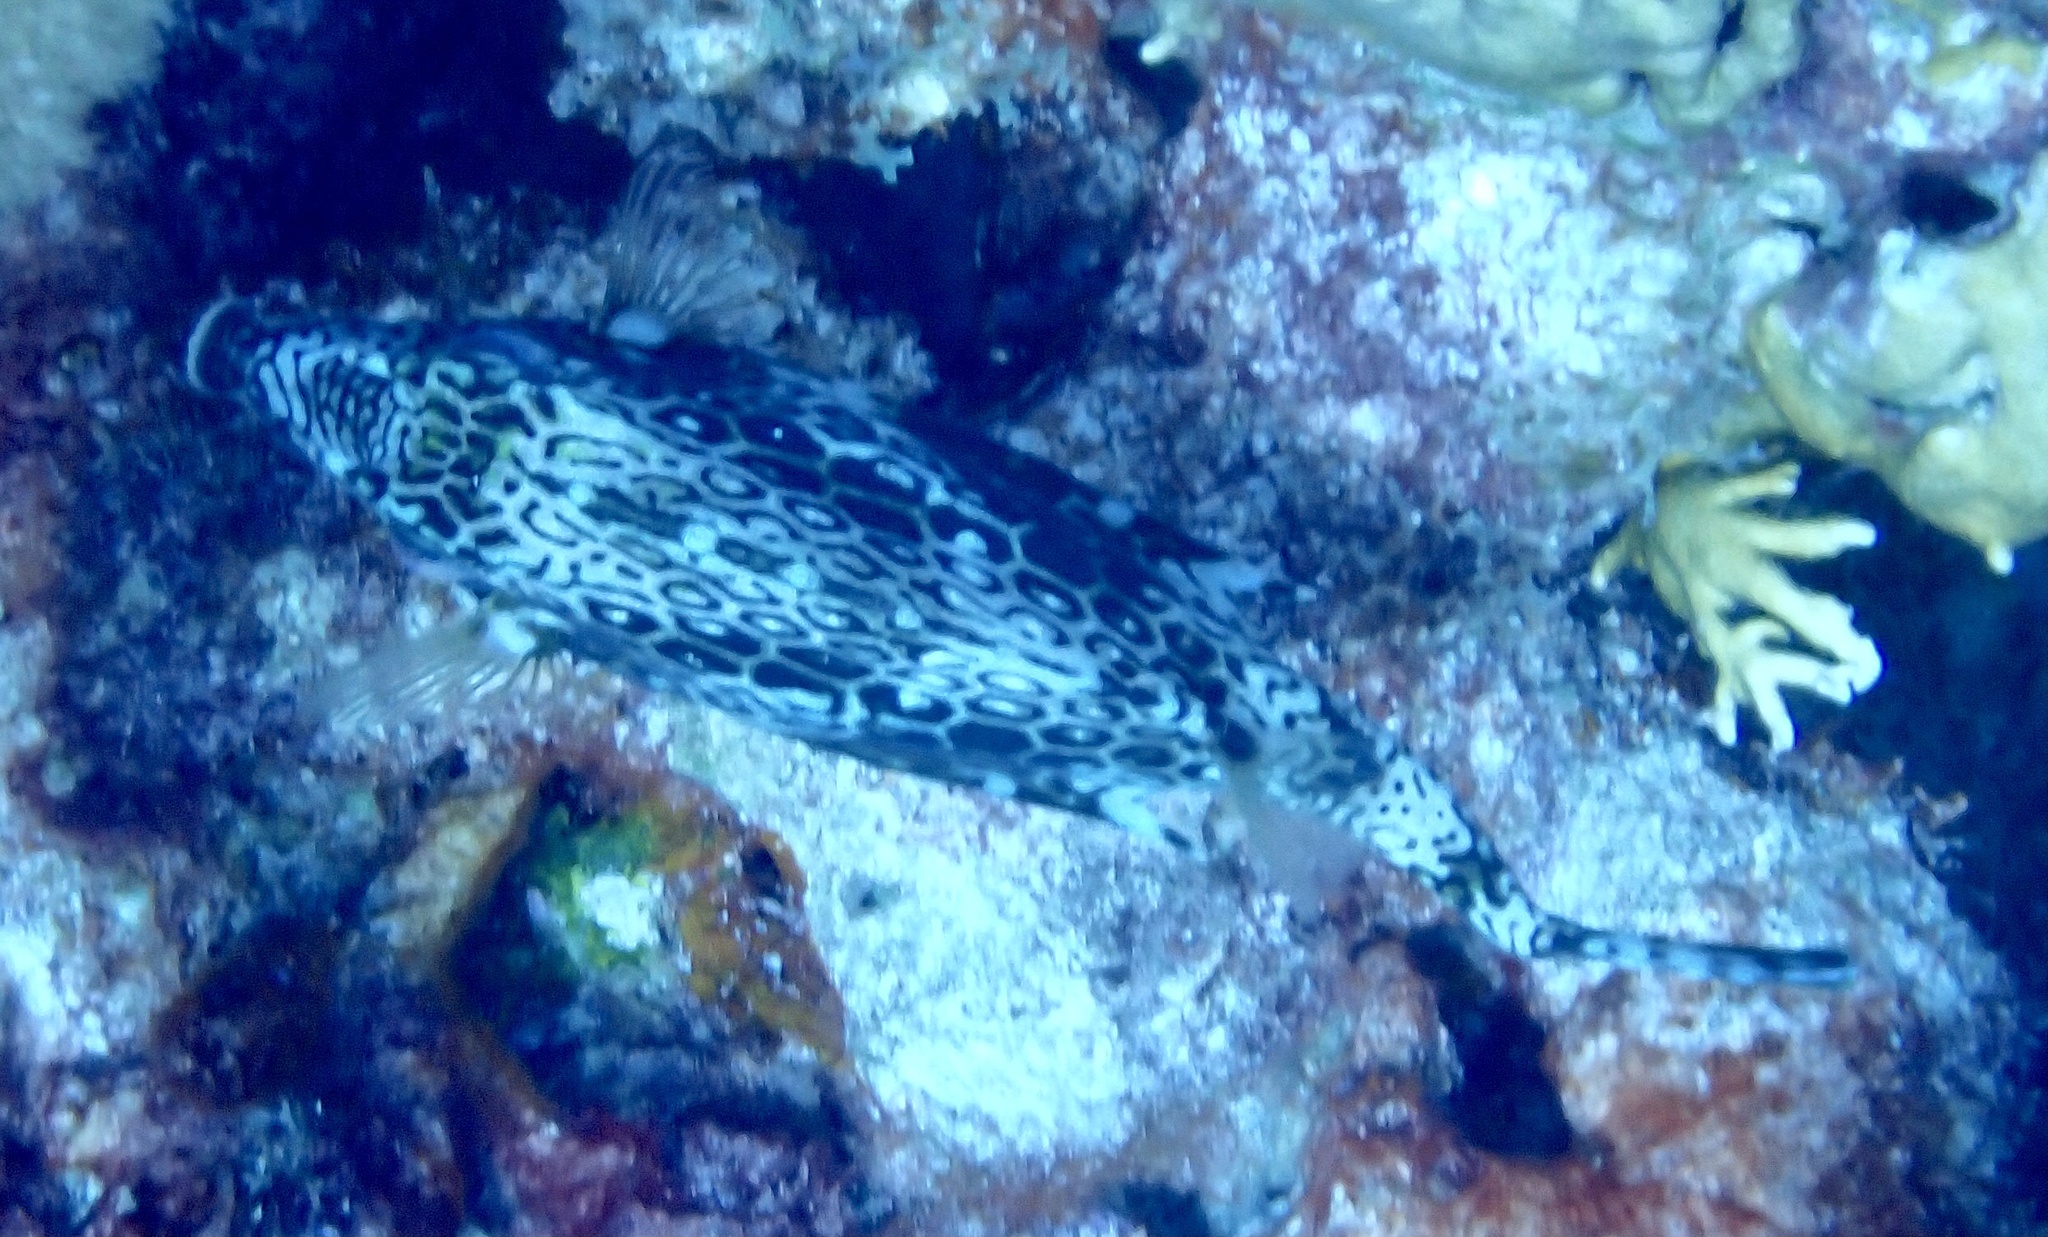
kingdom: Animalia
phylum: Chordata
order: Tetraodontiformes
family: Ostraciidae
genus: Acanthostracion
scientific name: Acanthostracion polygonius
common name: Honeycomb cowfish
